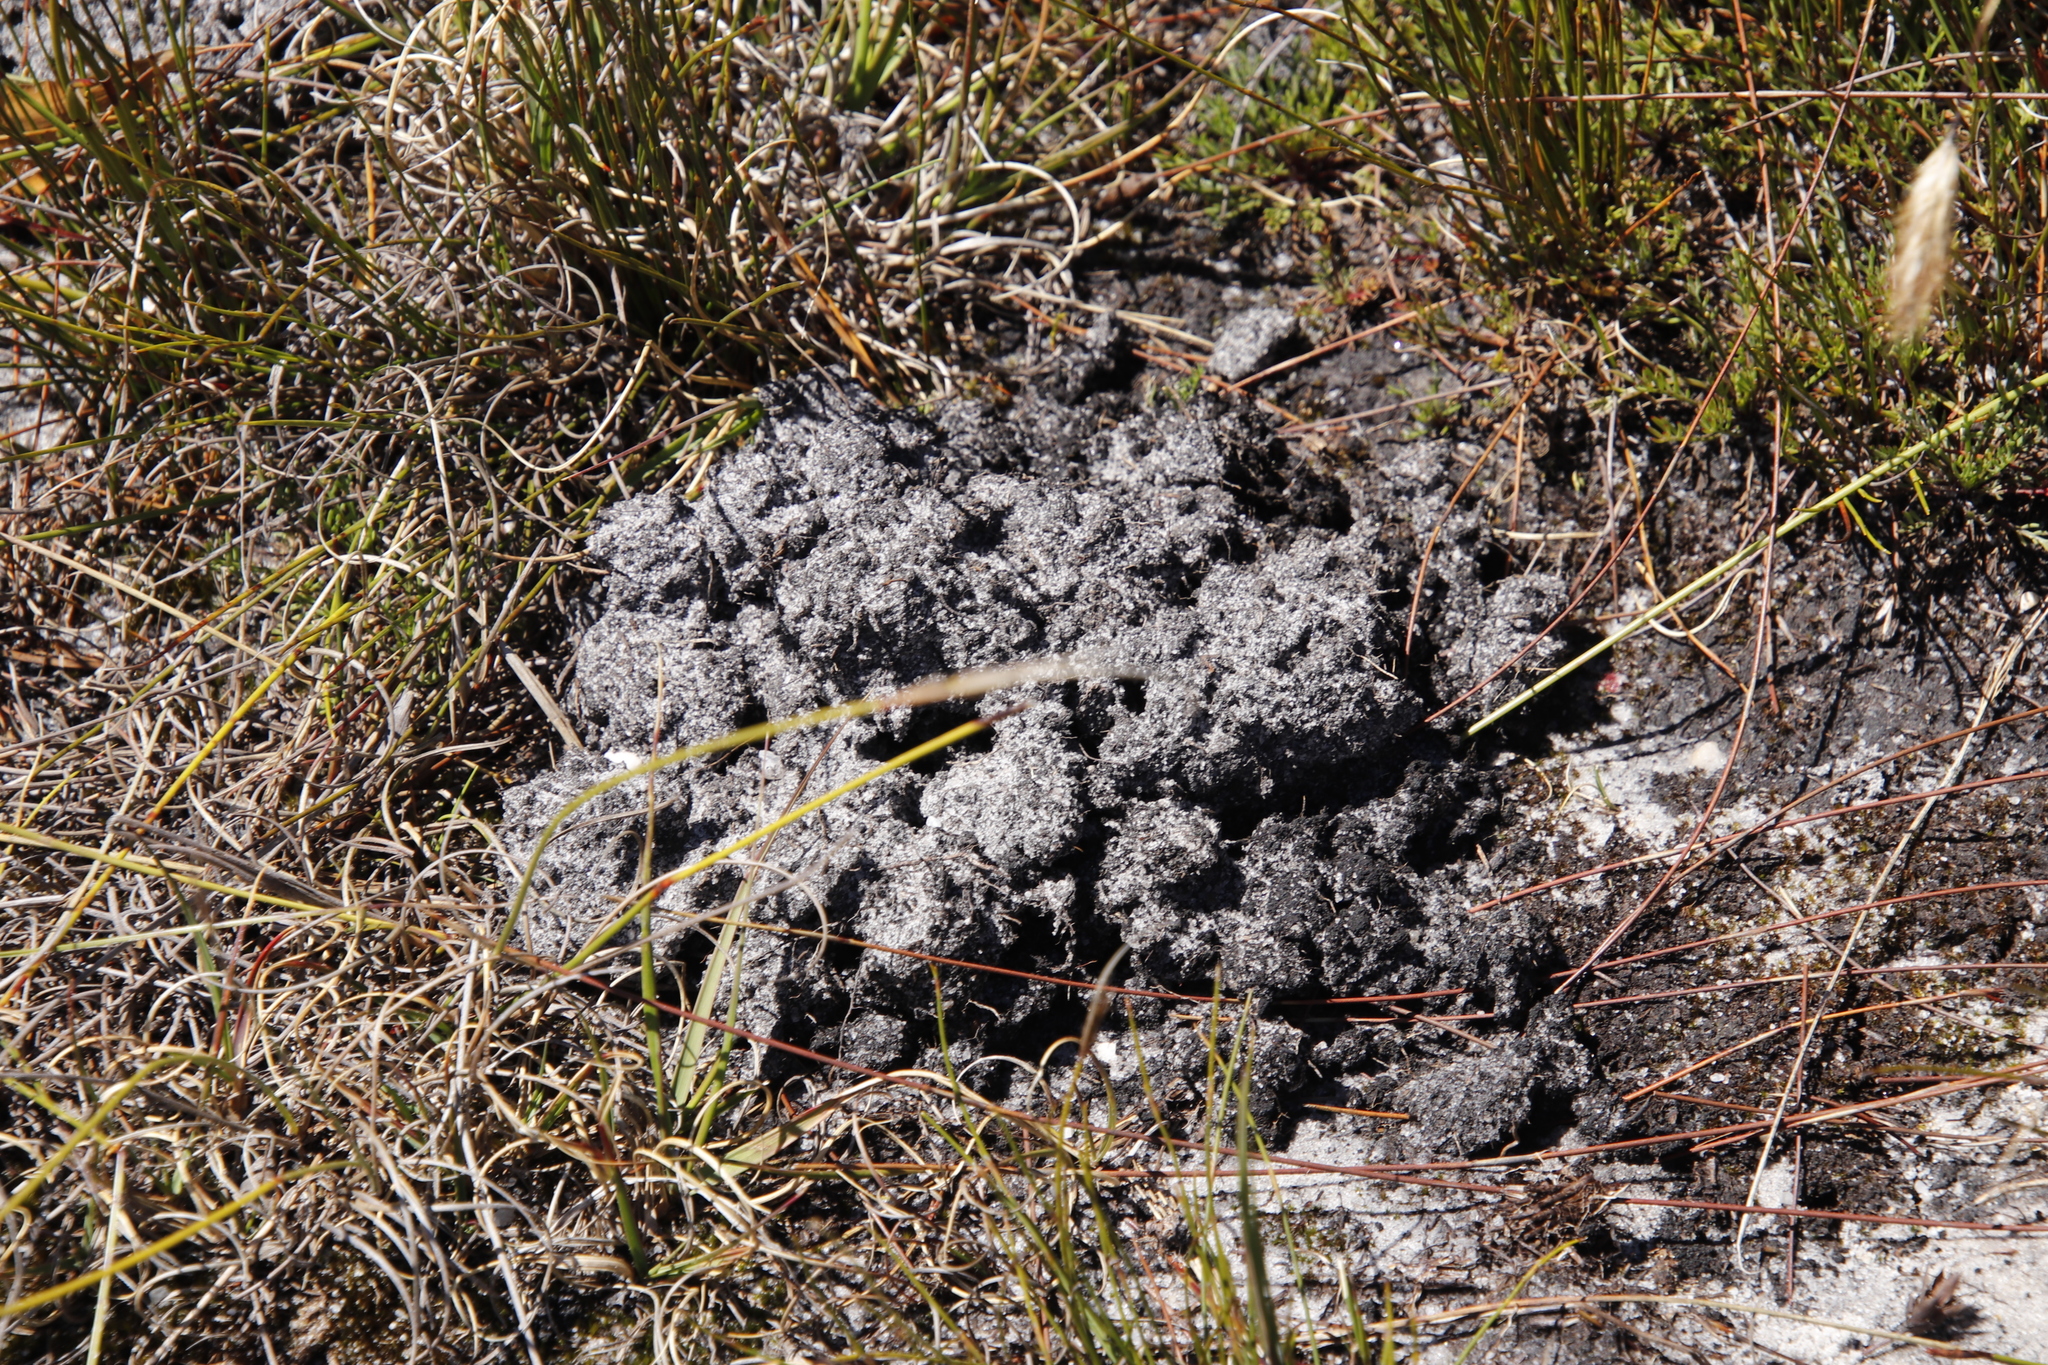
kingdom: Animalia
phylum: Chordata
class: Mammalia
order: Rodentia
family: Bathyergidae
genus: Georychus
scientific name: Georychus capensis
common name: Cape mole-rat
